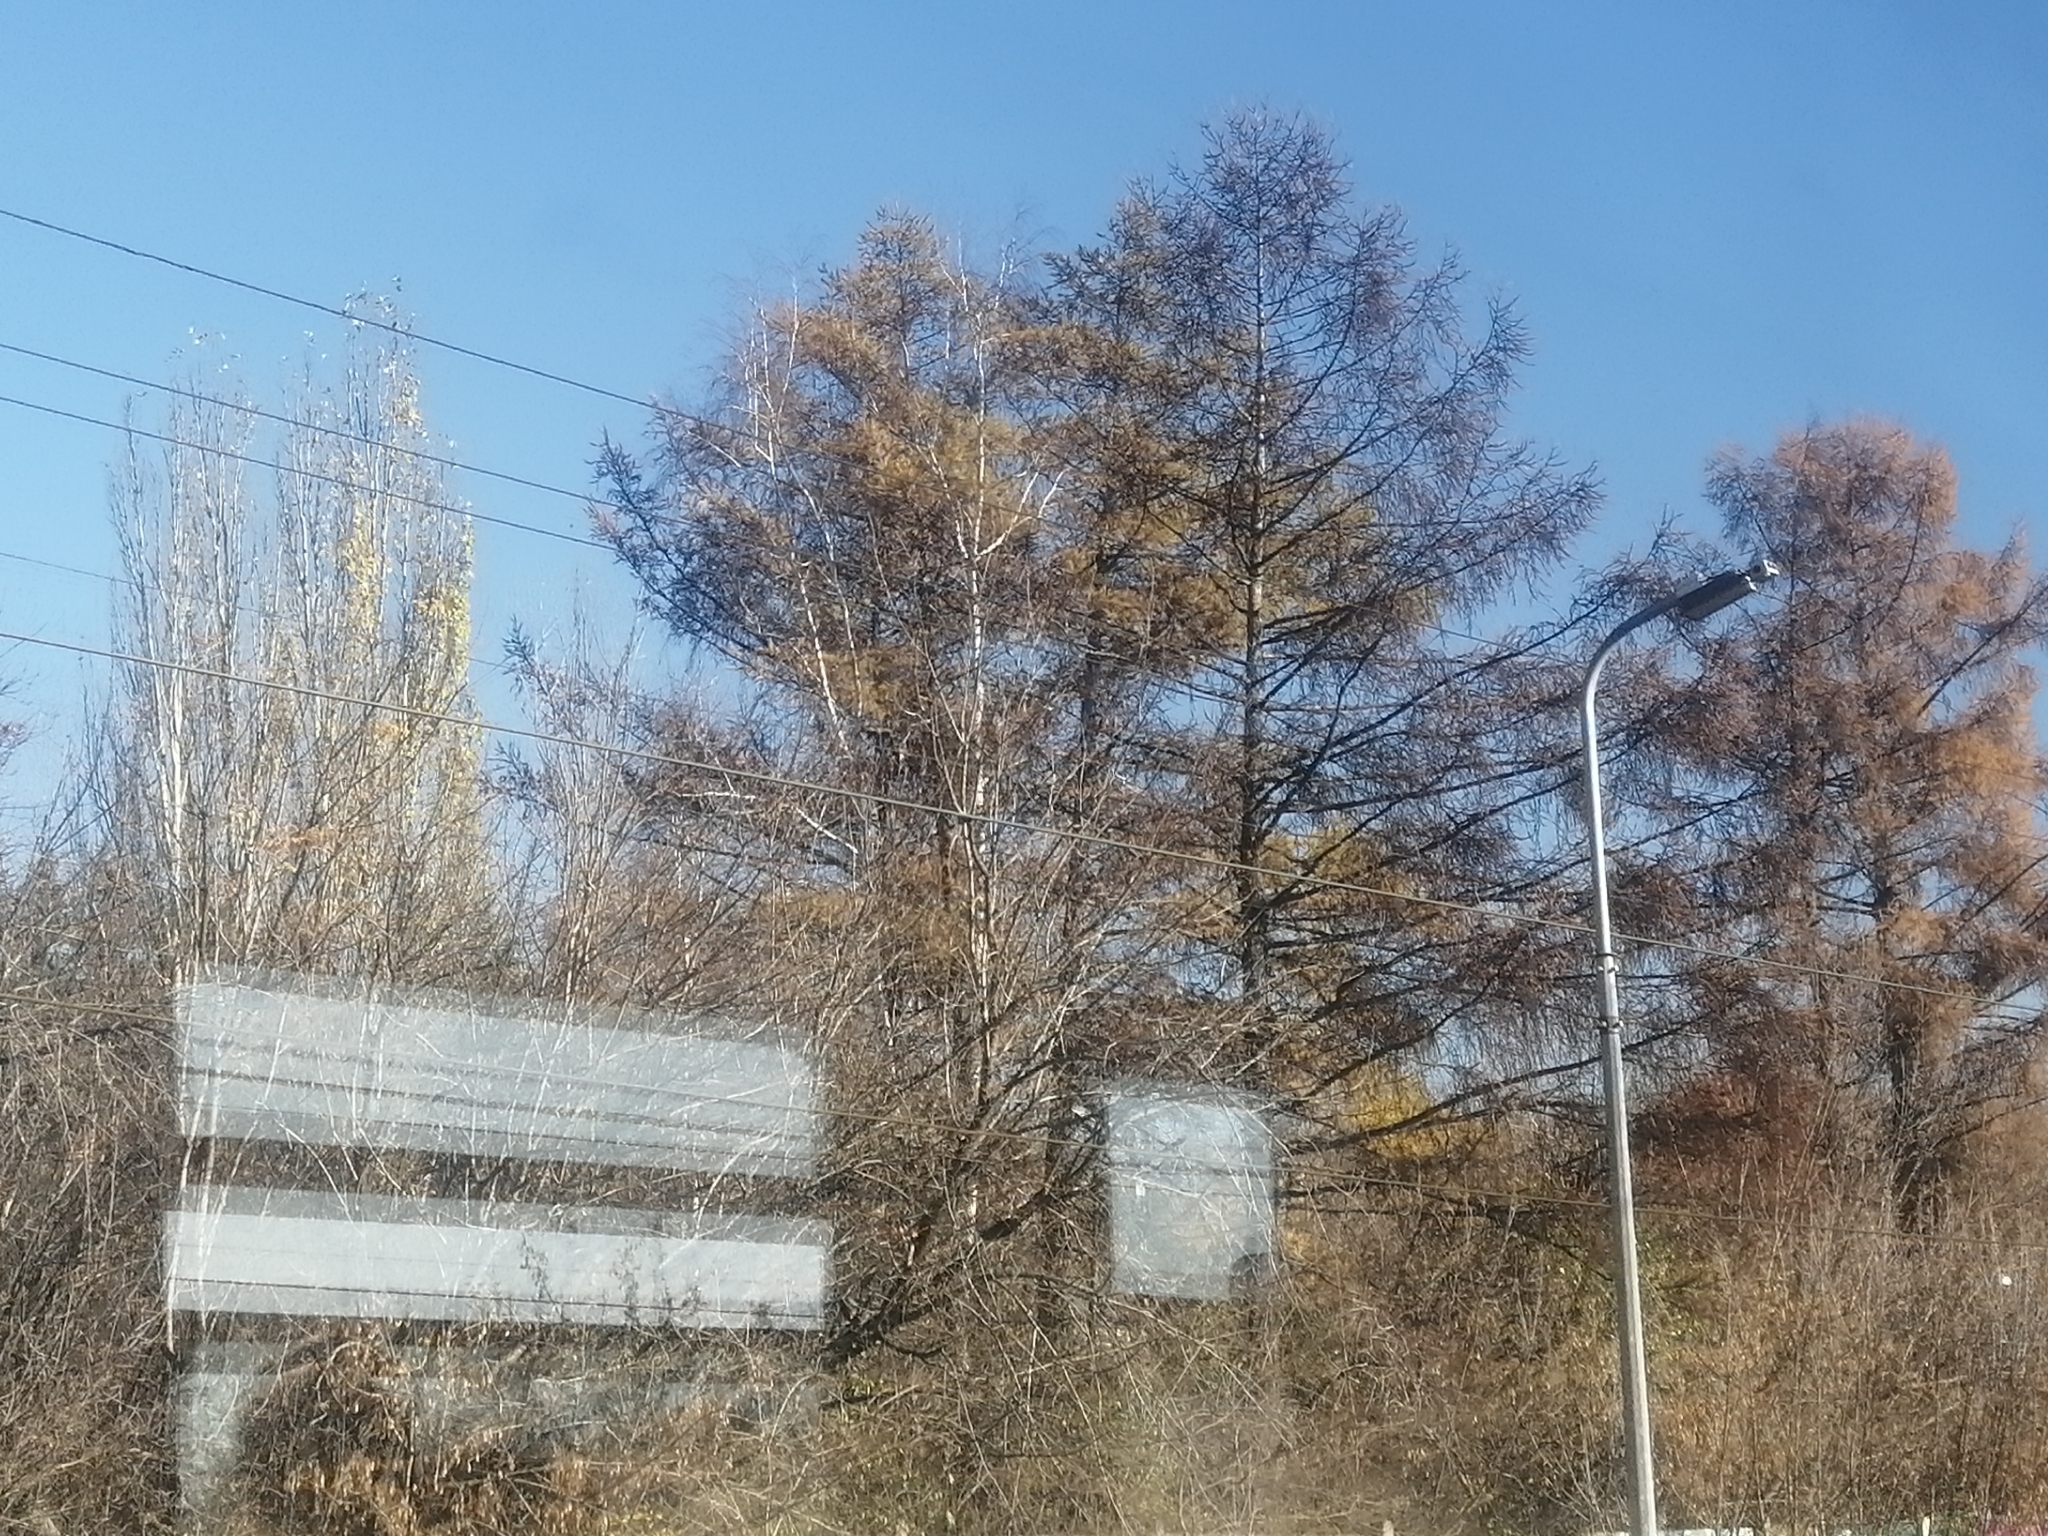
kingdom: Plantae
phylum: Tracheophyta
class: Pinopsida
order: Pinales
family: Pinaceae
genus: Larix
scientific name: Larix sibirica
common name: Siberian larch
